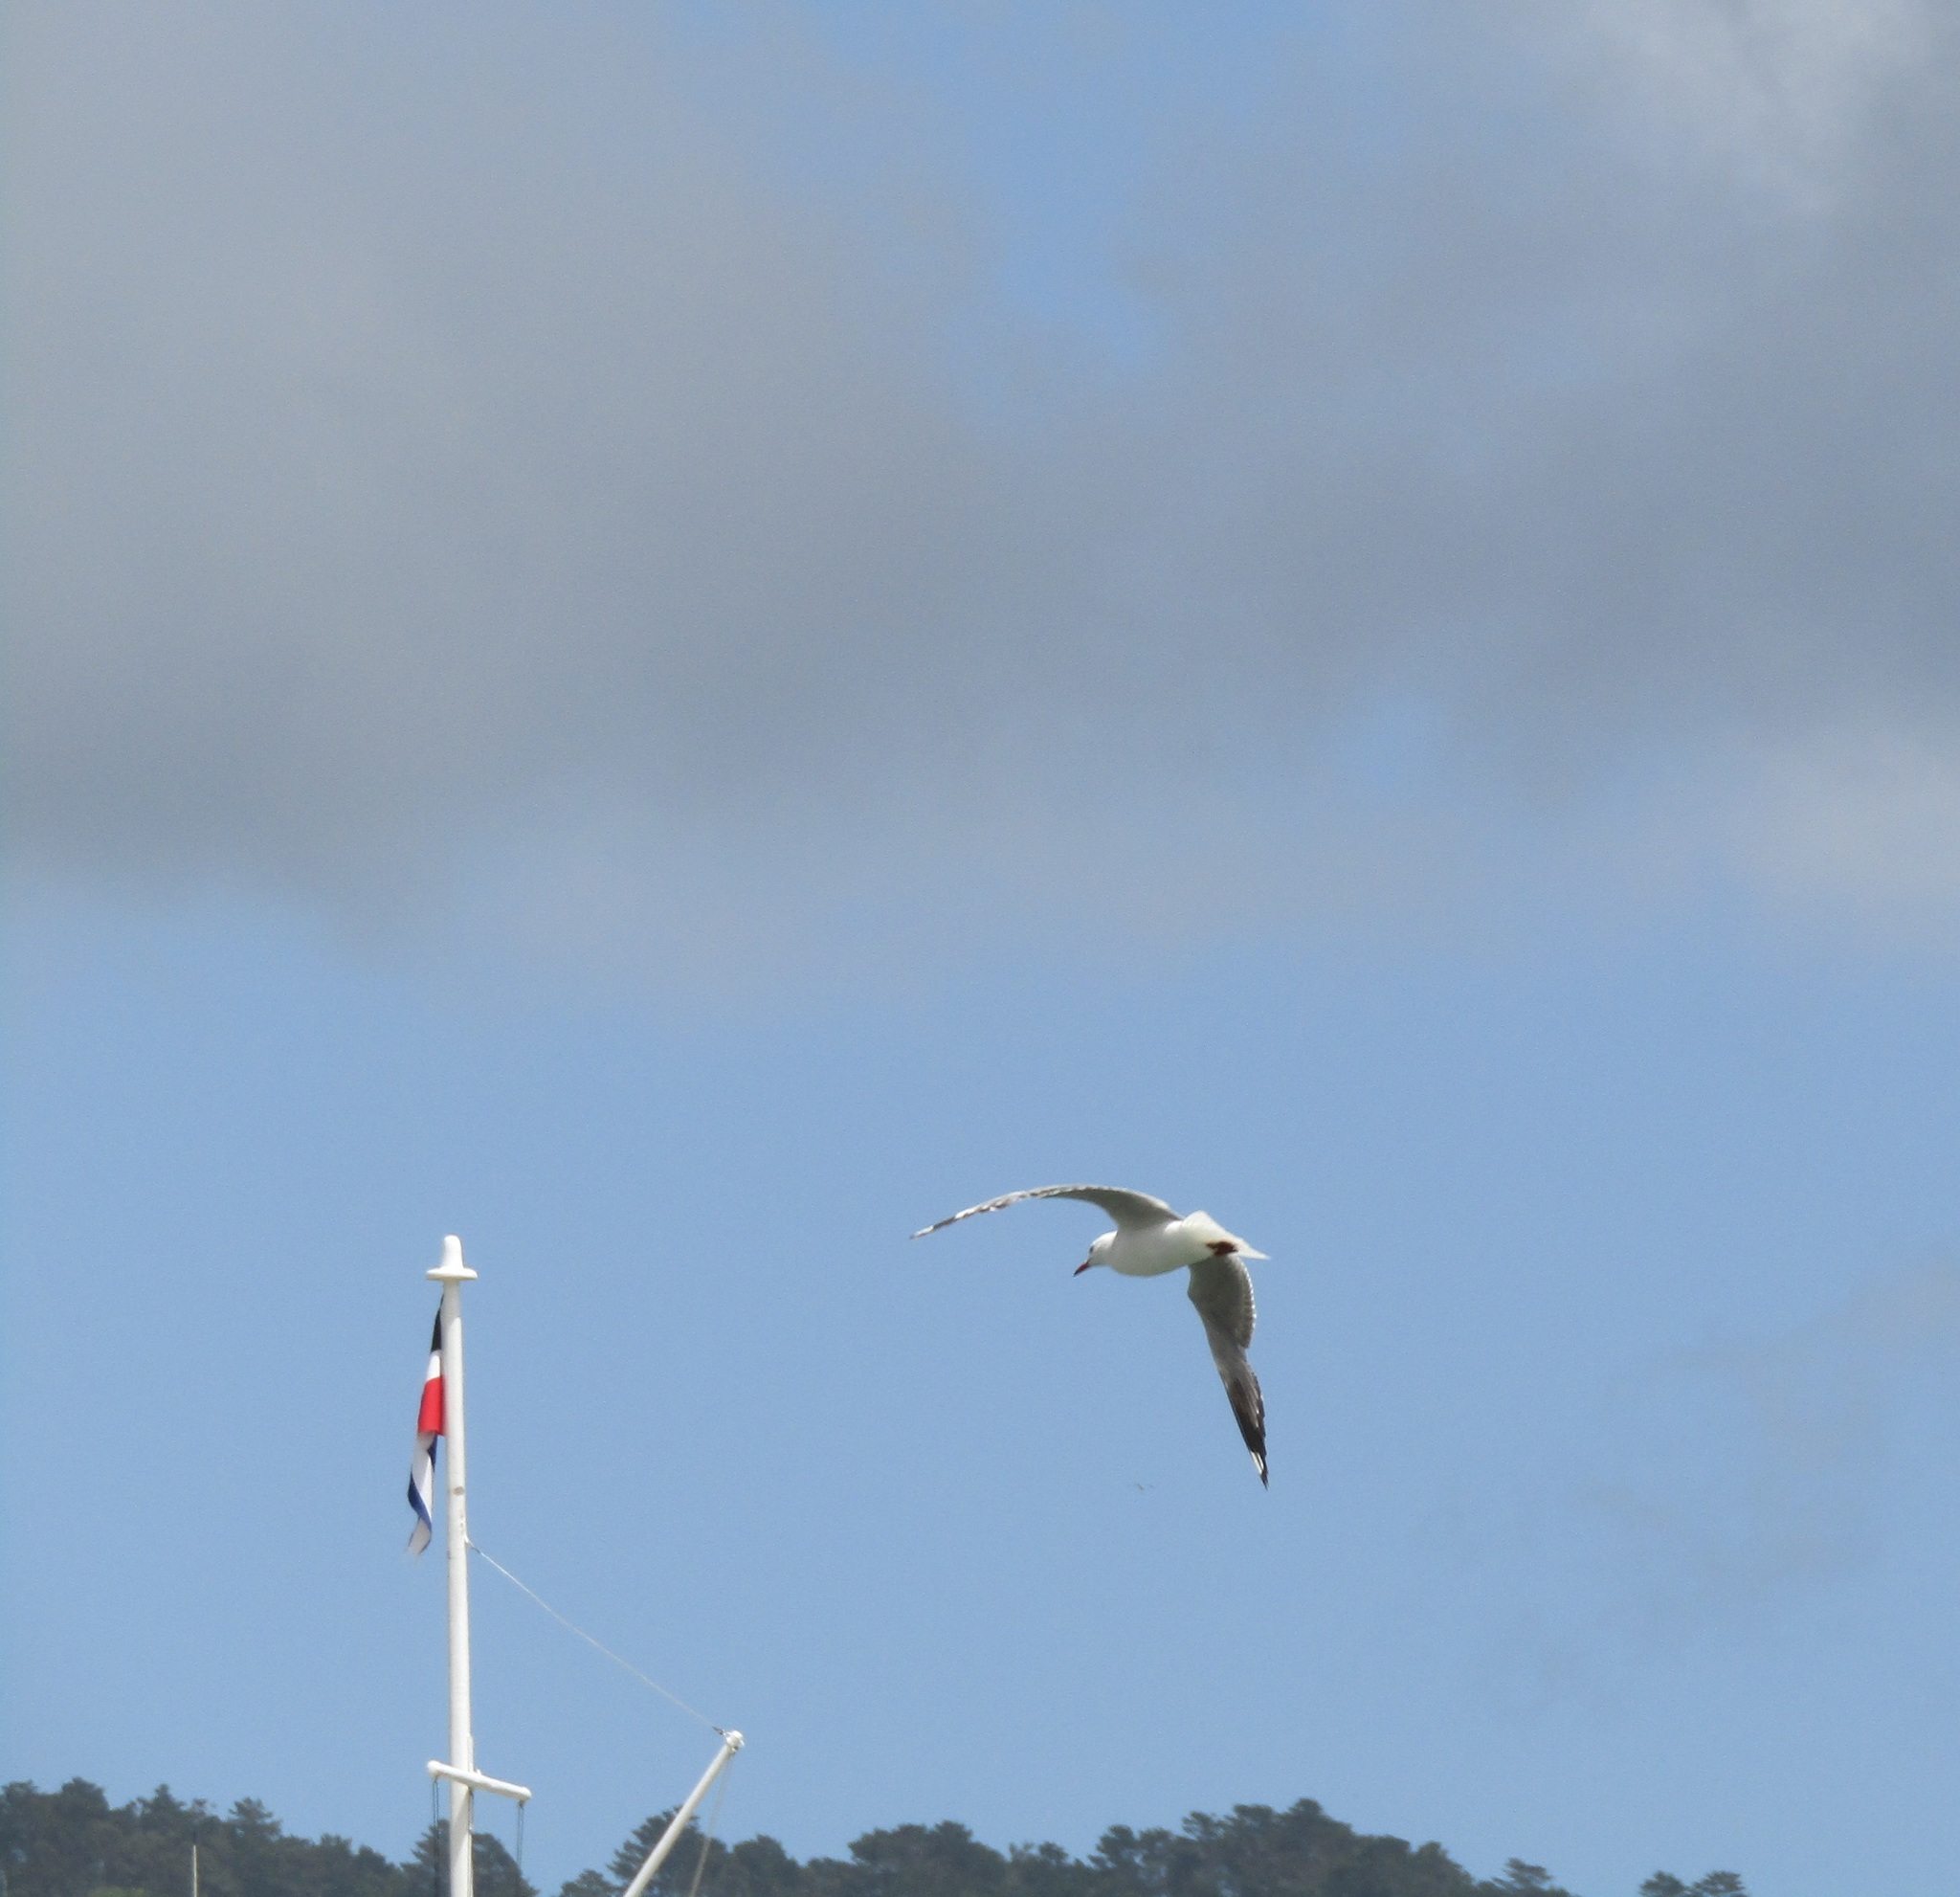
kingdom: Animalia
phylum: Chordata
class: Aves
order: Charadriiformes
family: Laridae
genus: Chroicocephalus
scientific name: Chroicocephalus novaehollandiae
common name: Silver gull
